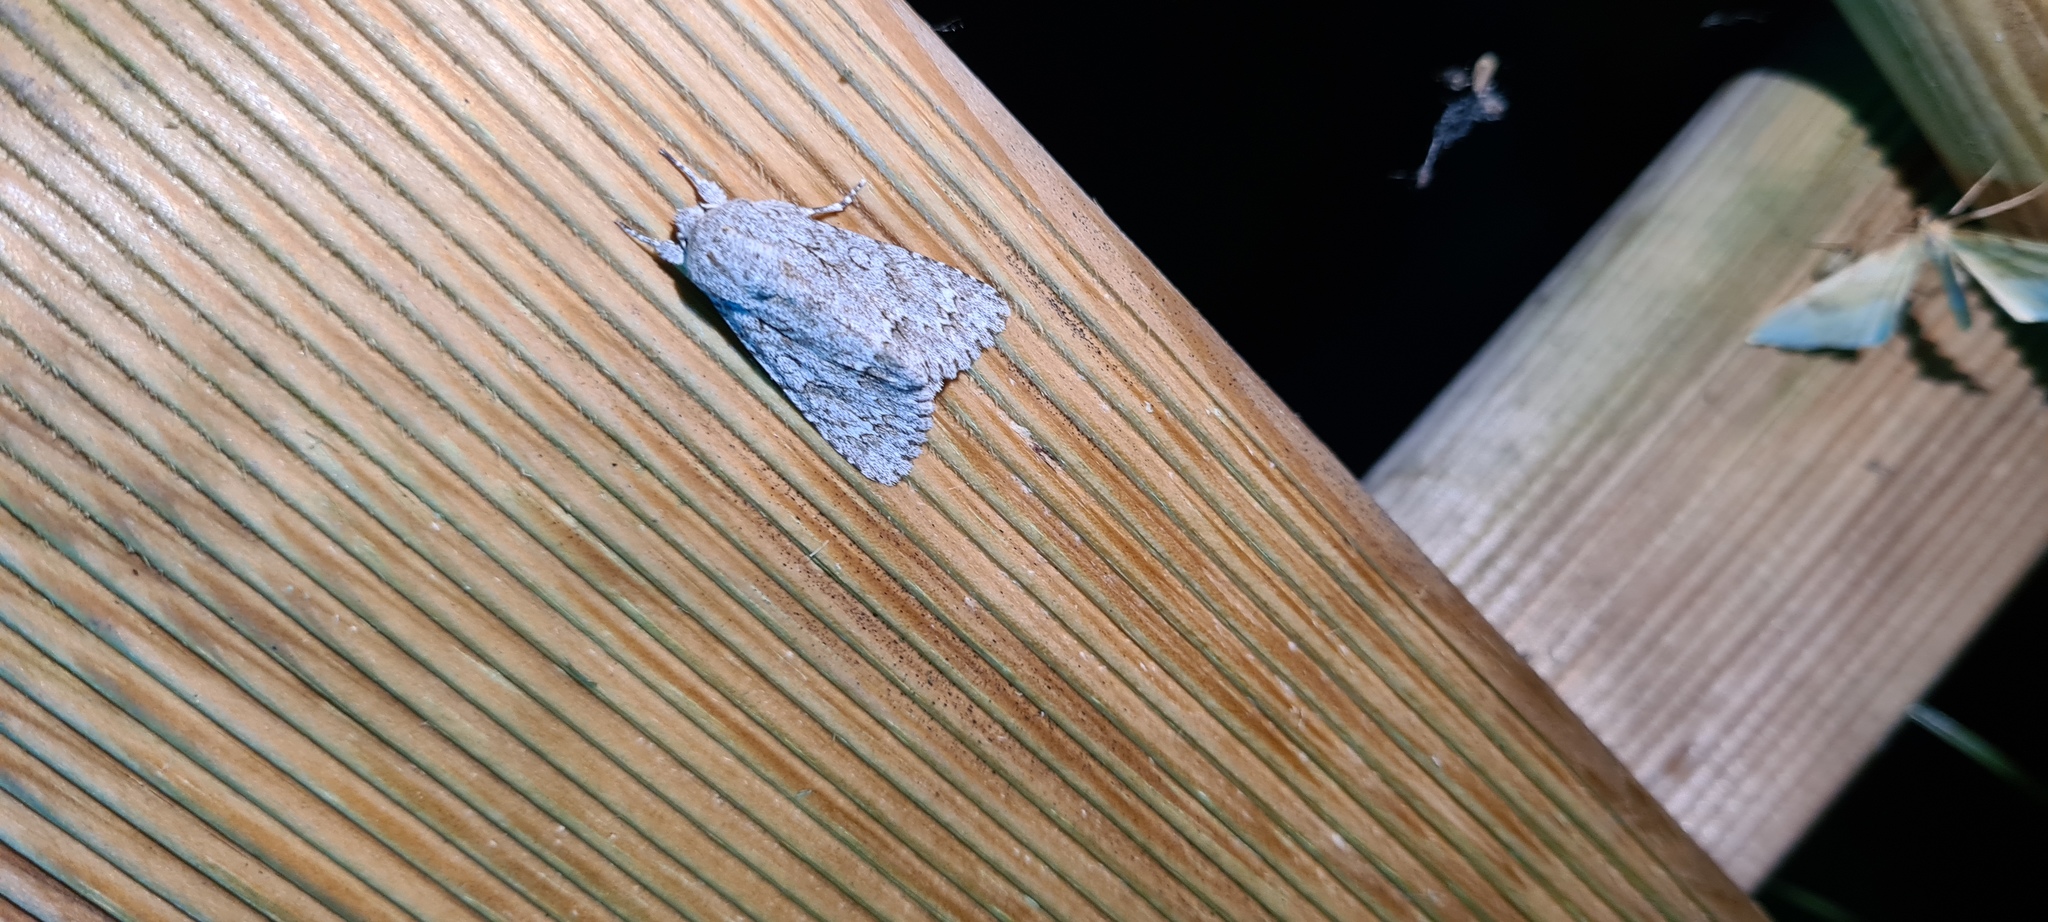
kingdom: Animalia
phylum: Arthropoda
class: Insecta
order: Lepidoptera
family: Noctuidae
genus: Acronicta
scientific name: Acronicta aceris
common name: Sycamore
